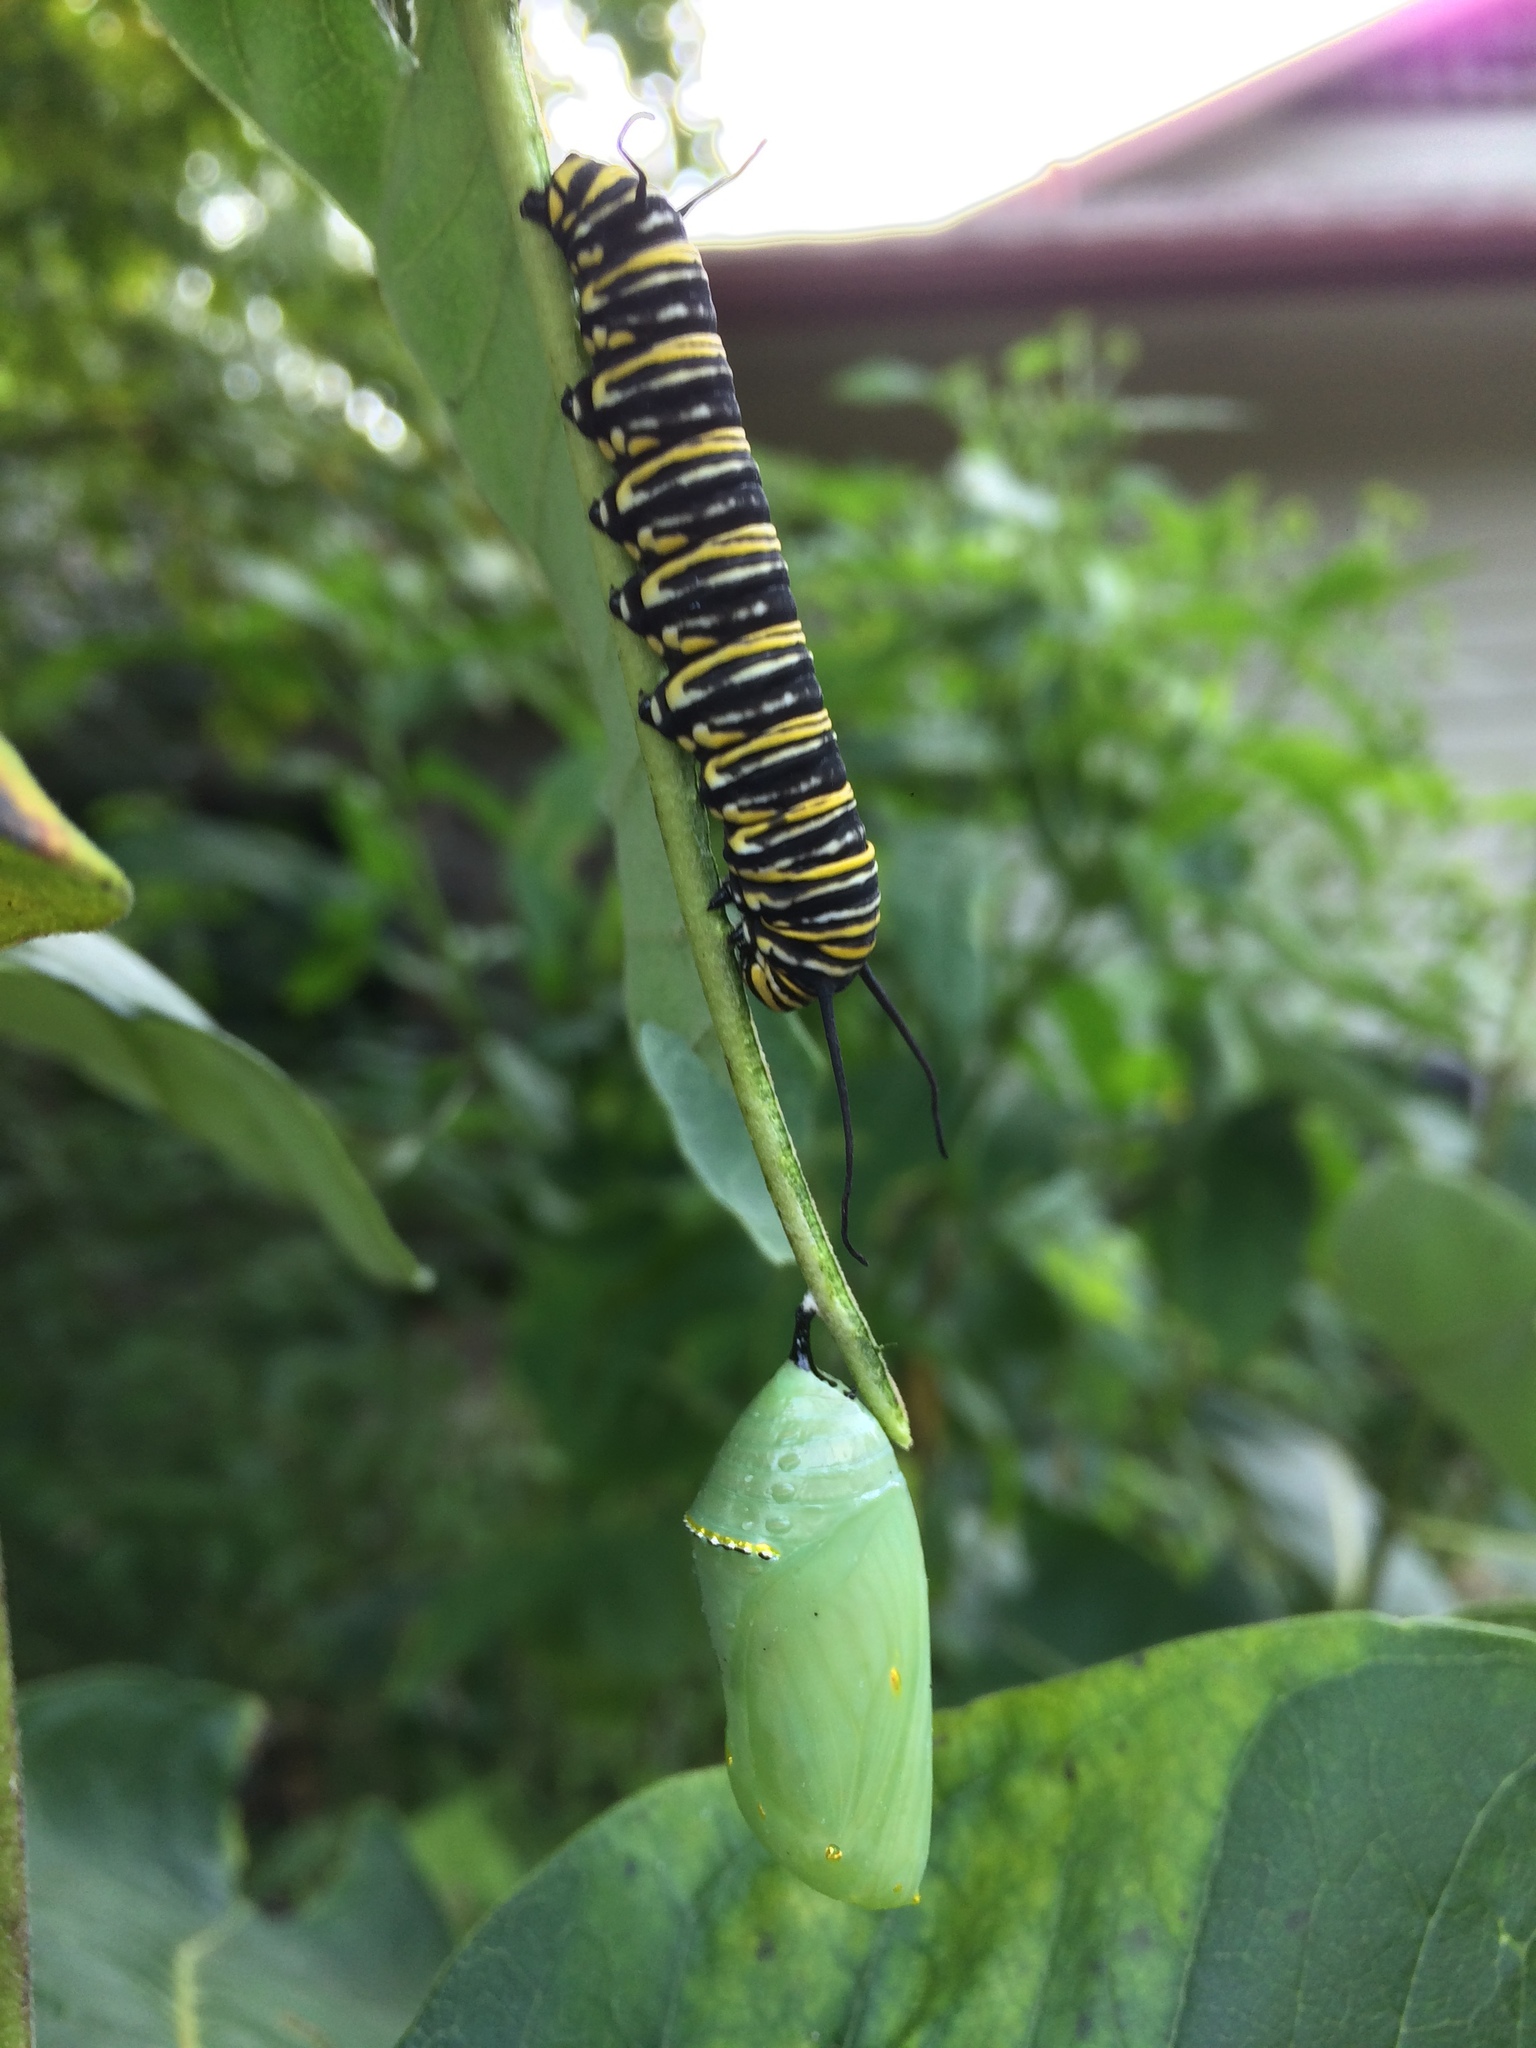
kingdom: Animalia
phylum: Arthropoda
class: Insecta
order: Lepidoptera
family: Nymphalidae
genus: Danaus
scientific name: Danaus plexippus
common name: Monarch
